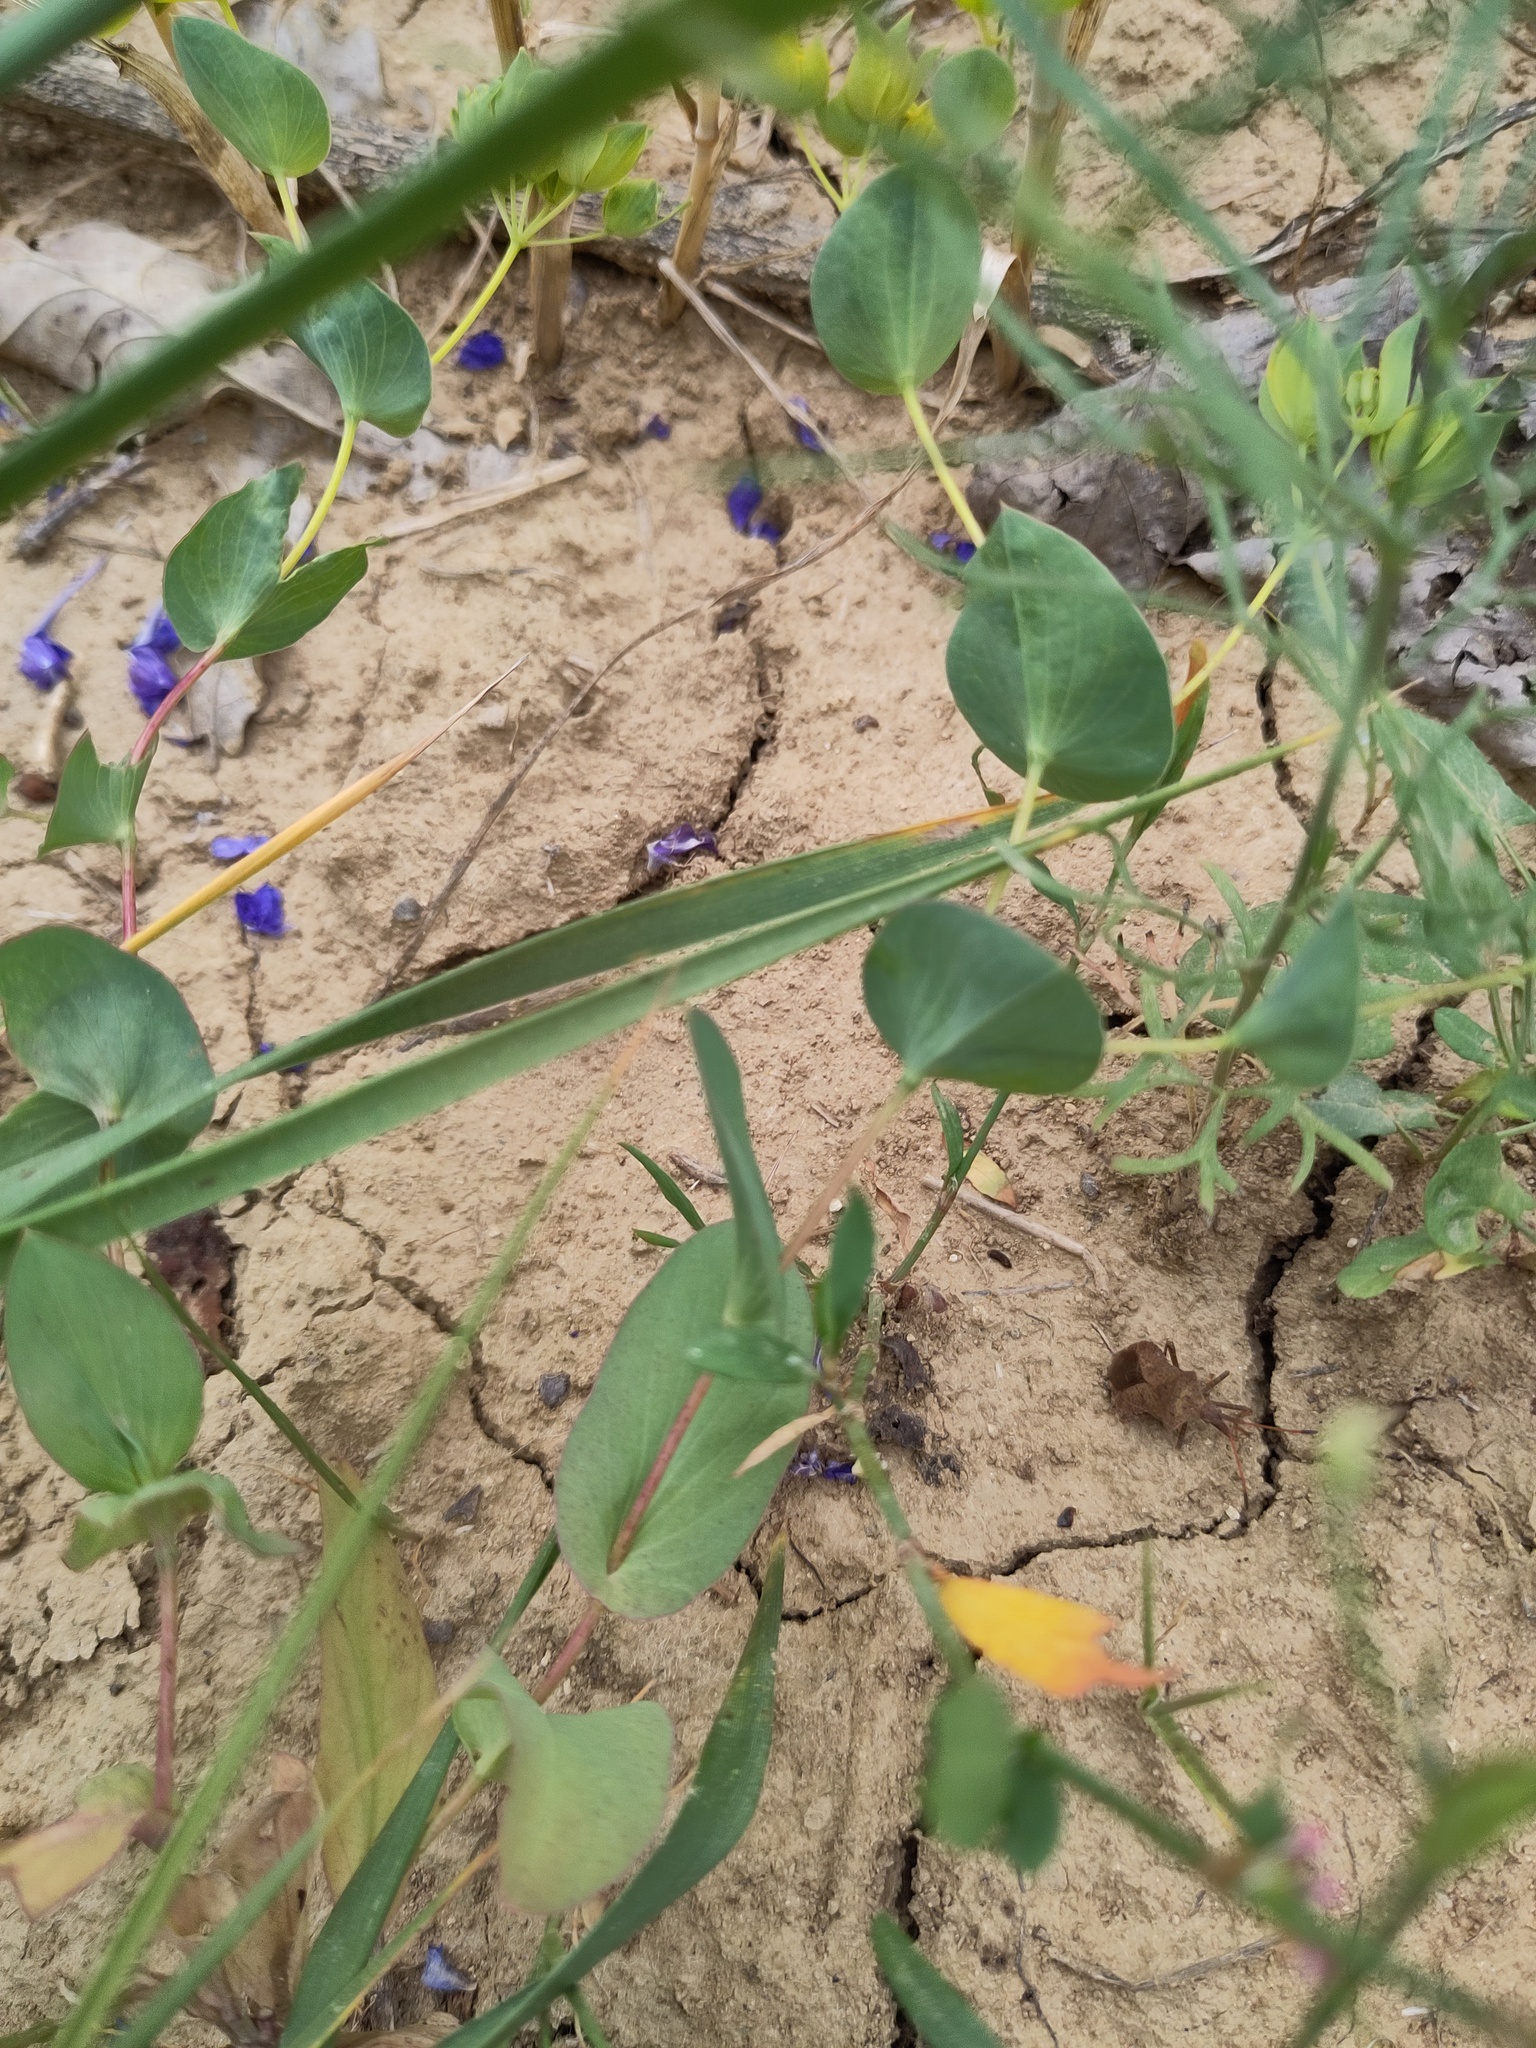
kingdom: Plantae
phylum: Tracheophyta
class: Magnoliopsida
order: Apiales
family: Apiaceae
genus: Bupleurum
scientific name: Bupleurum rotundifolium
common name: Thorow-wax
